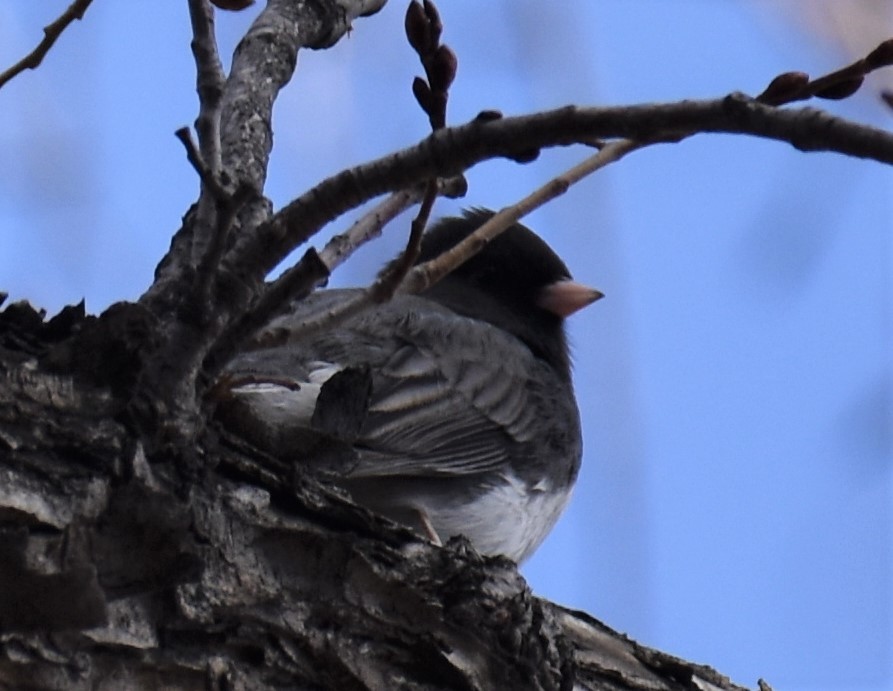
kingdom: Animalia
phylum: Chordata
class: Aves
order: Passeriformes
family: Passerellidae
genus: Junco
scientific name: Junco hyemalis
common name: Dark-eyed junco
